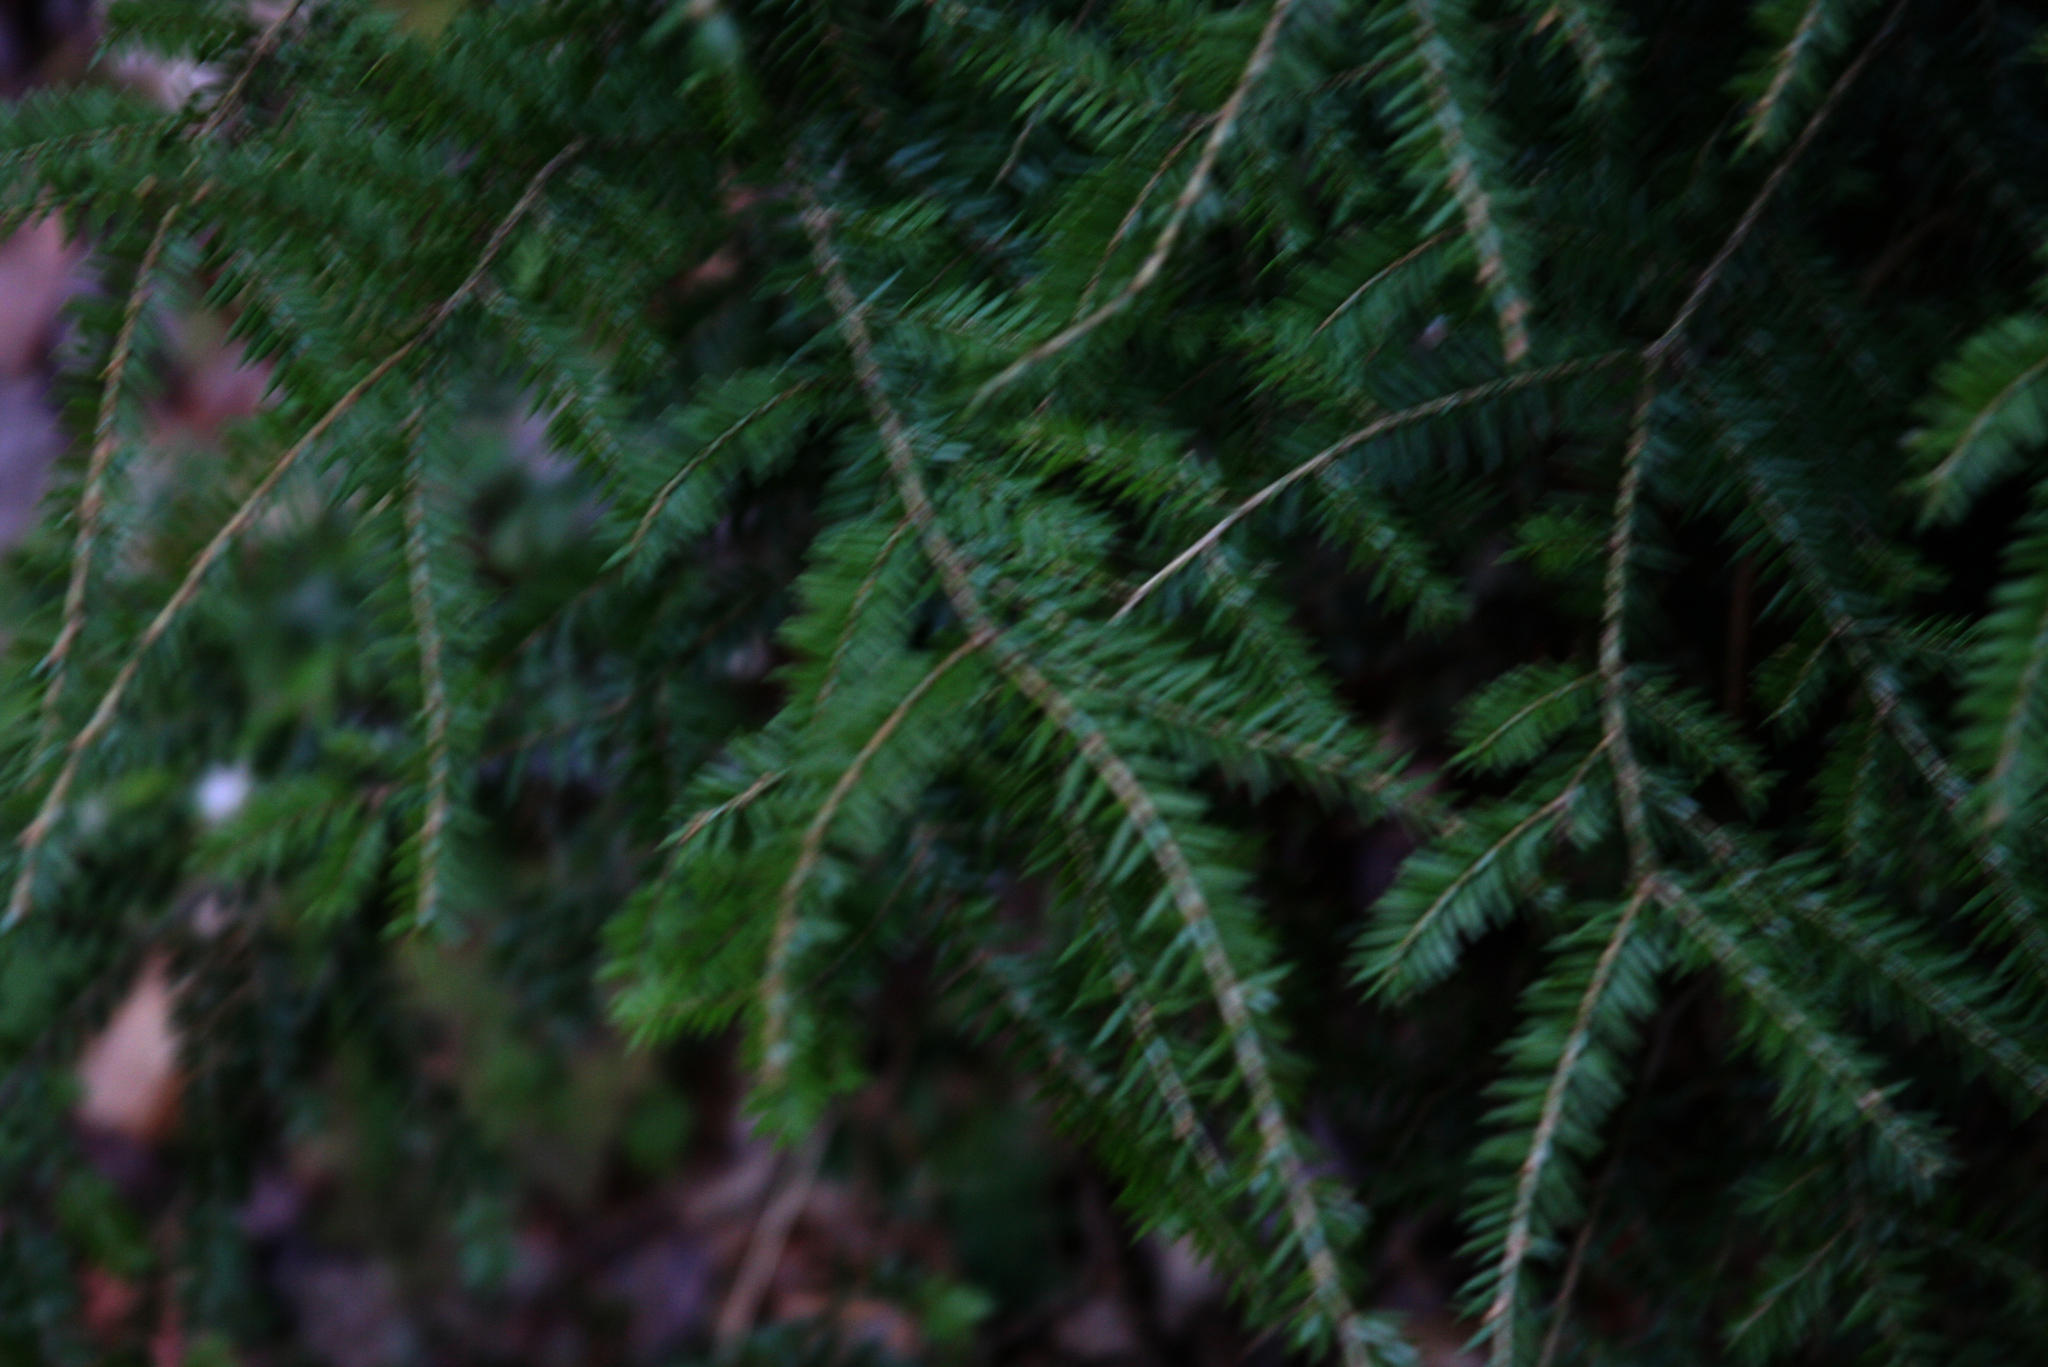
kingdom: Plantae
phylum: Tracheophyta
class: Pinopsida
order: Pinales
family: Pinaceae
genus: Tsuga
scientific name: Tsuga canadensis
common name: Eastern hemlock
